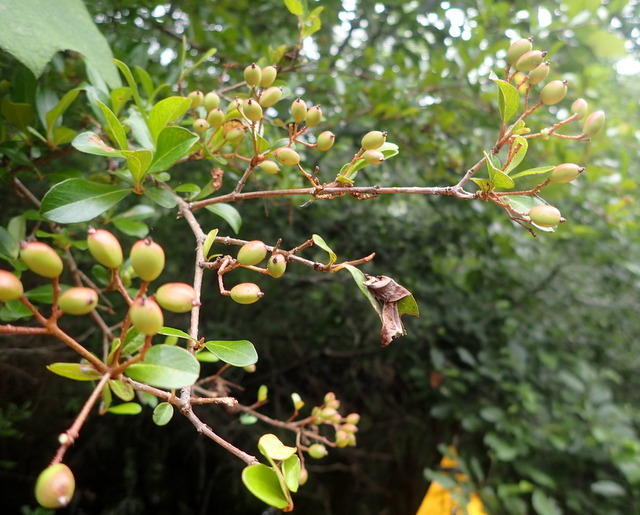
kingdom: Plantae
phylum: Tracheophyta
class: Magnoliopsida
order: Dipsacales
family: Viburnaceae
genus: Viburnum
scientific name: Viburnum obovatum
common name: Walter's viburnum
